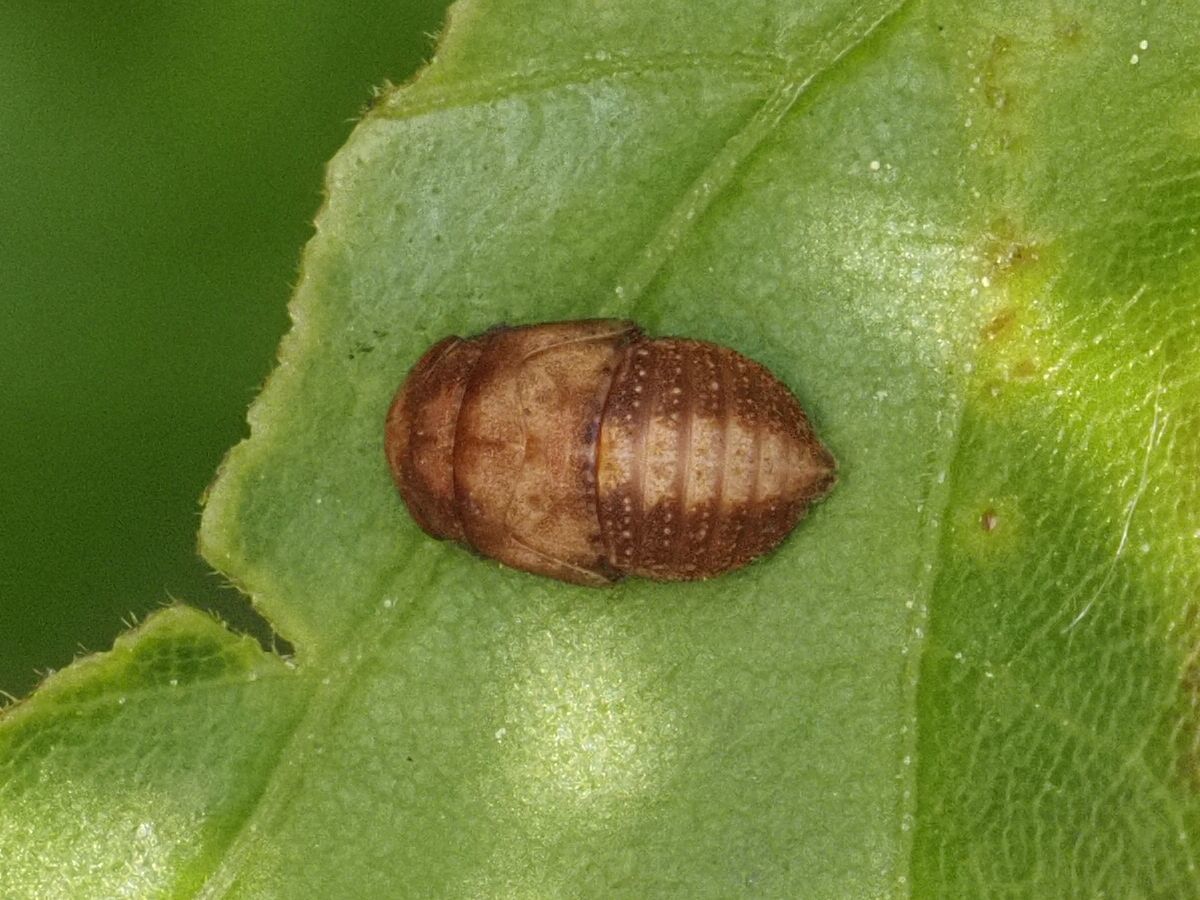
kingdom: Animalia
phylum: Arthropoda
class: Insecta
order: Hemiptera
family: Cicadellidae
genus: Penthimia
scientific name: Penthimia nigra
